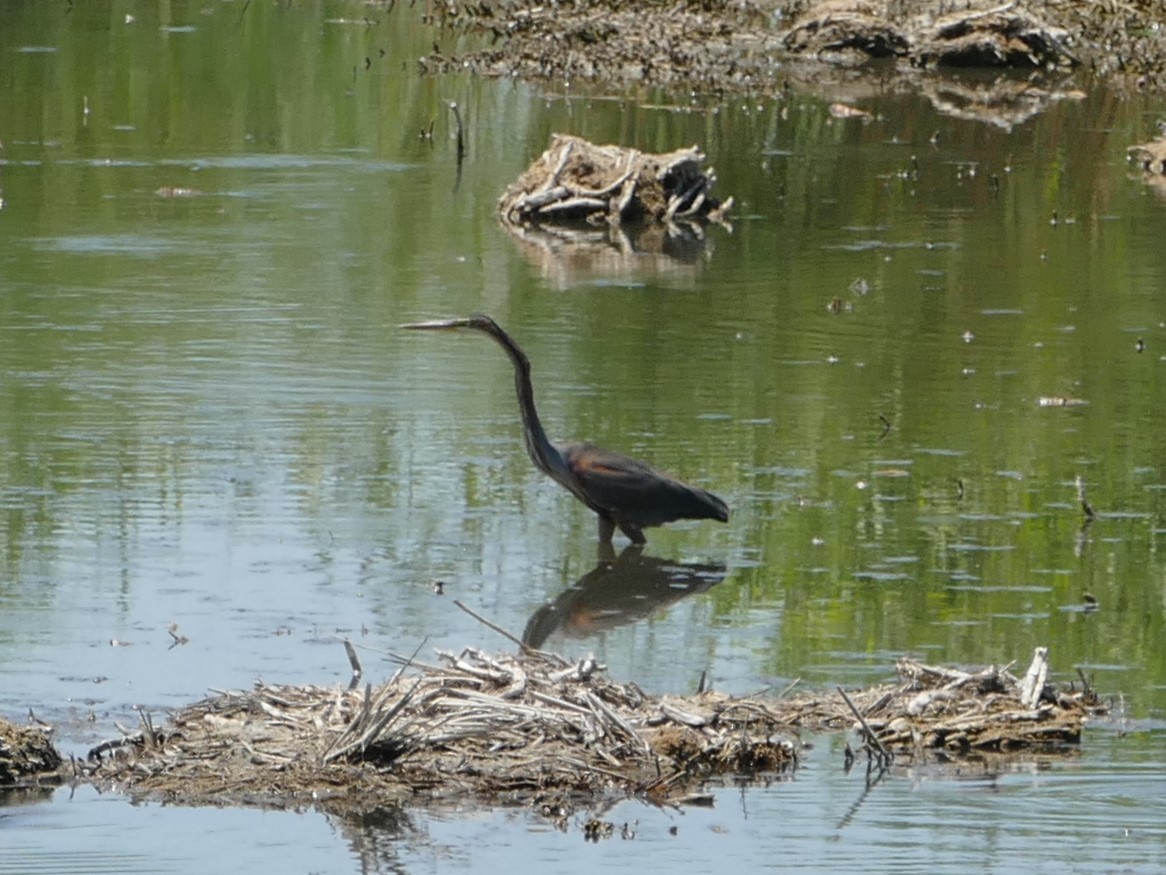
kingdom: Animalia
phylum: Chordata
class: Aves
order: Pelecaniformes
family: Ardeidae
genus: Ardea
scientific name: Ardea purpurea
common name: Purple heron
